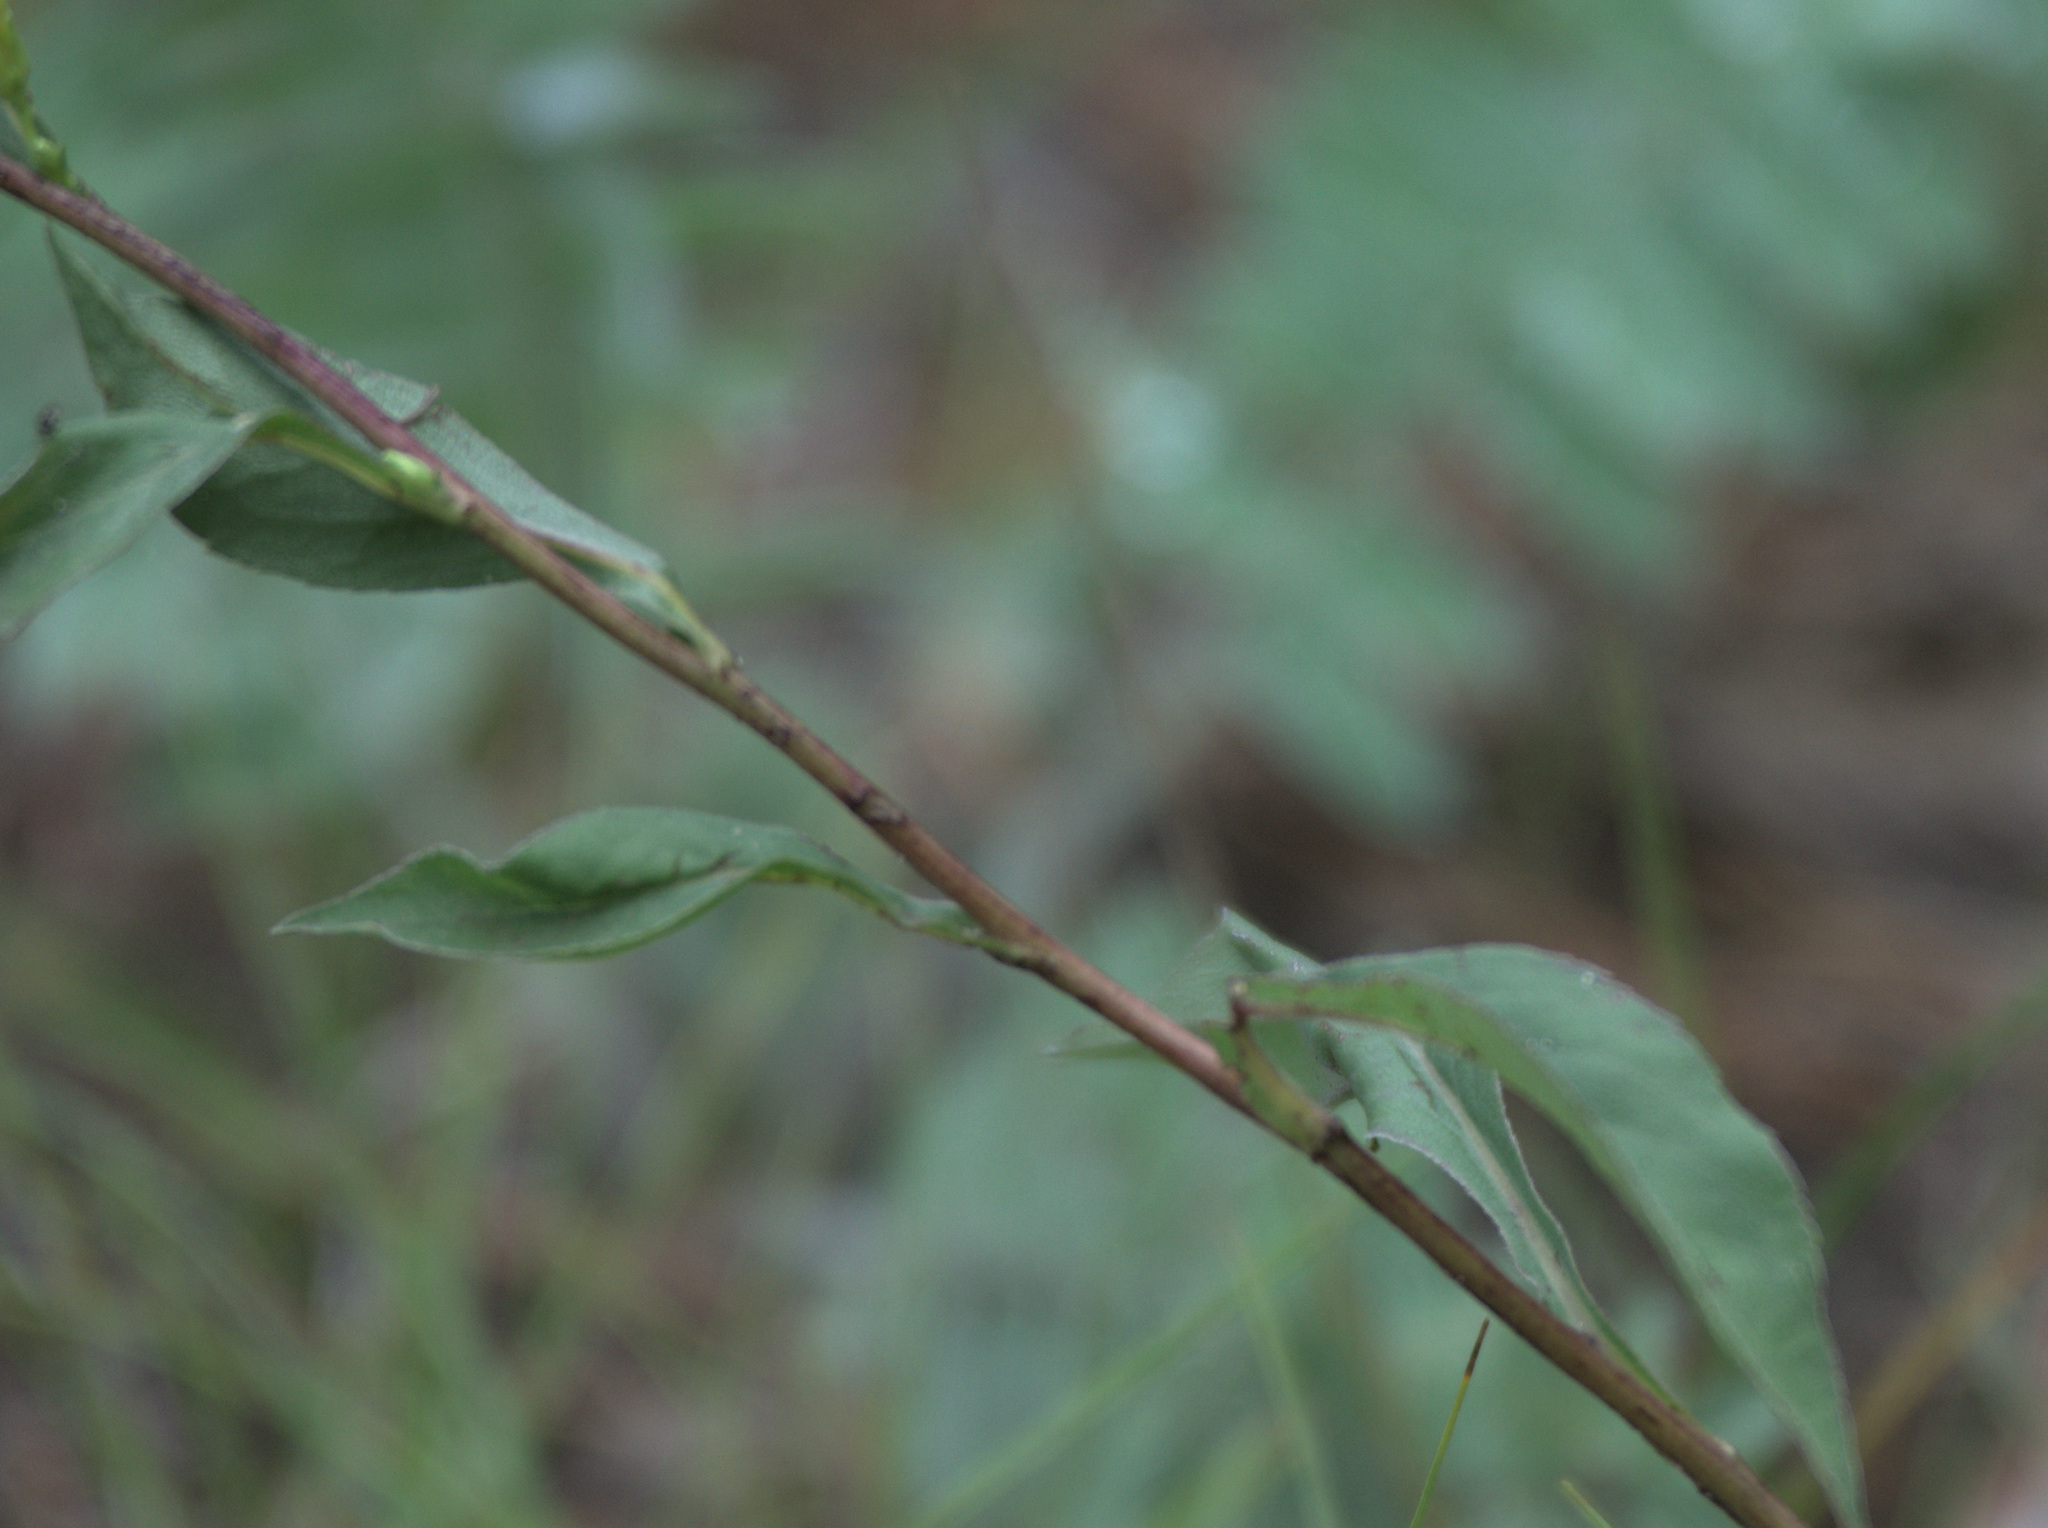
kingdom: Plantae
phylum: Tracheophyta
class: Magnoliopsida
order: Asterales
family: Asteraceae
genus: Solidago
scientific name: Solidago virgaurea
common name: Goldenrod
